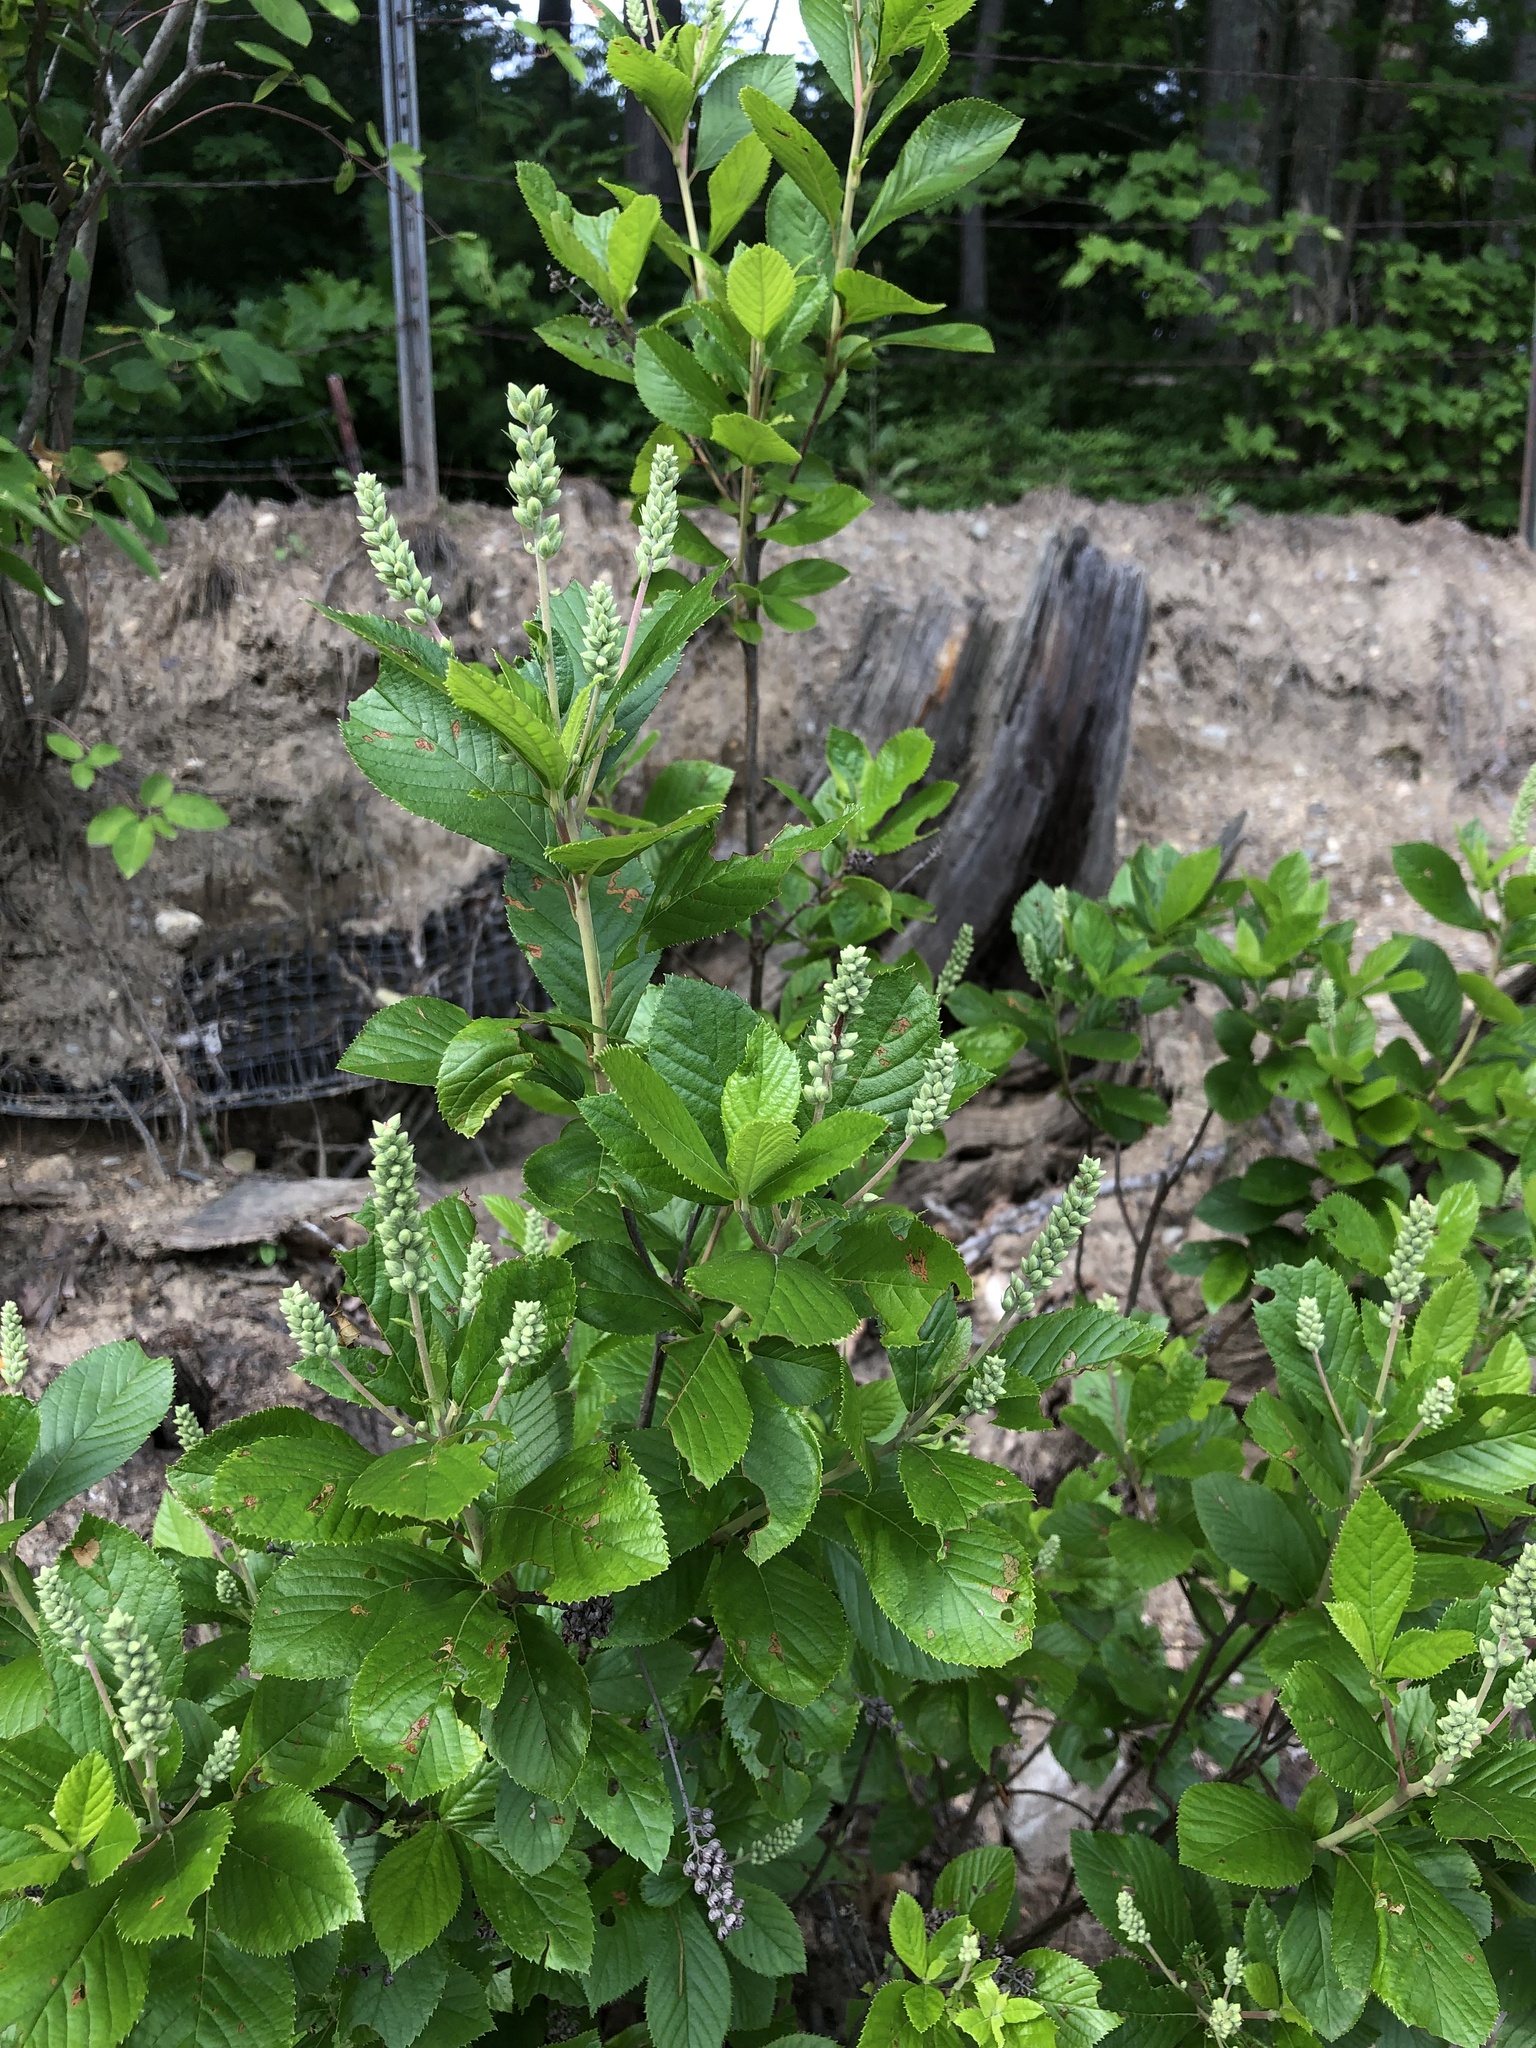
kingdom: Plantae
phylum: Tracheophyta
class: Magnoliopsida
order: Ericales
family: Clethraceae
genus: Clethra
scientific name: Clethra alnifolia
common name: Sweet pepperbush
